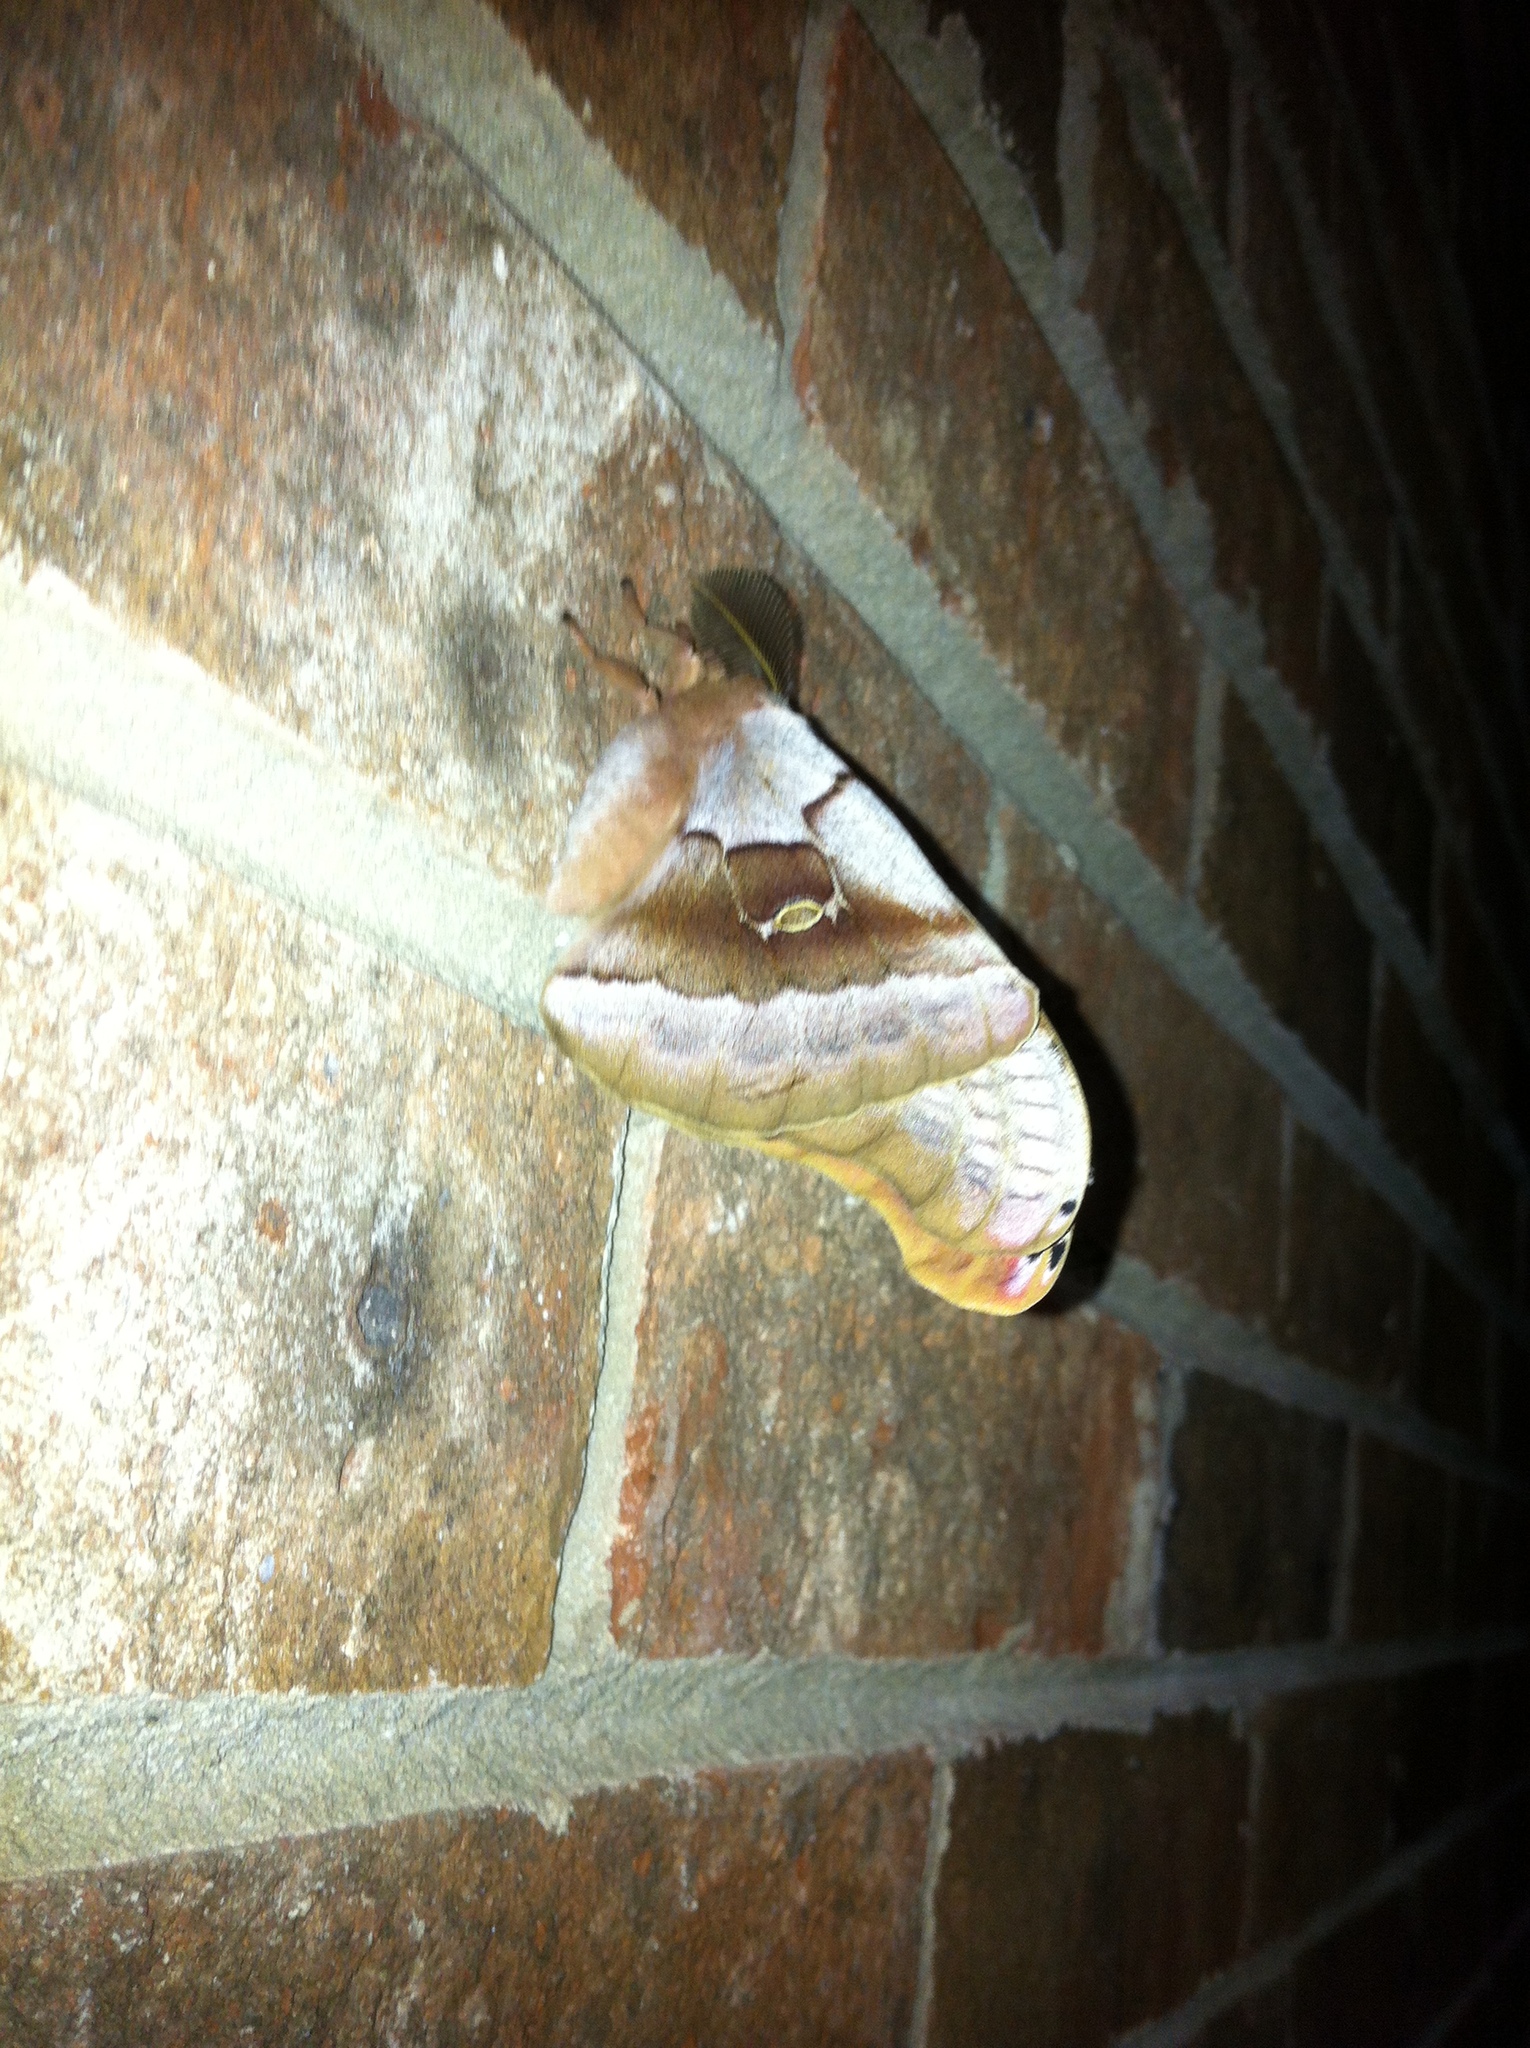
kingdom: Animalia
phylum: Arthropoda
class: Insecta
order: Lepidoptera
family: Saturniidae
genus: Antheraea
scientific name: Antheraea polyphemus
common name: Polyphemus moth
